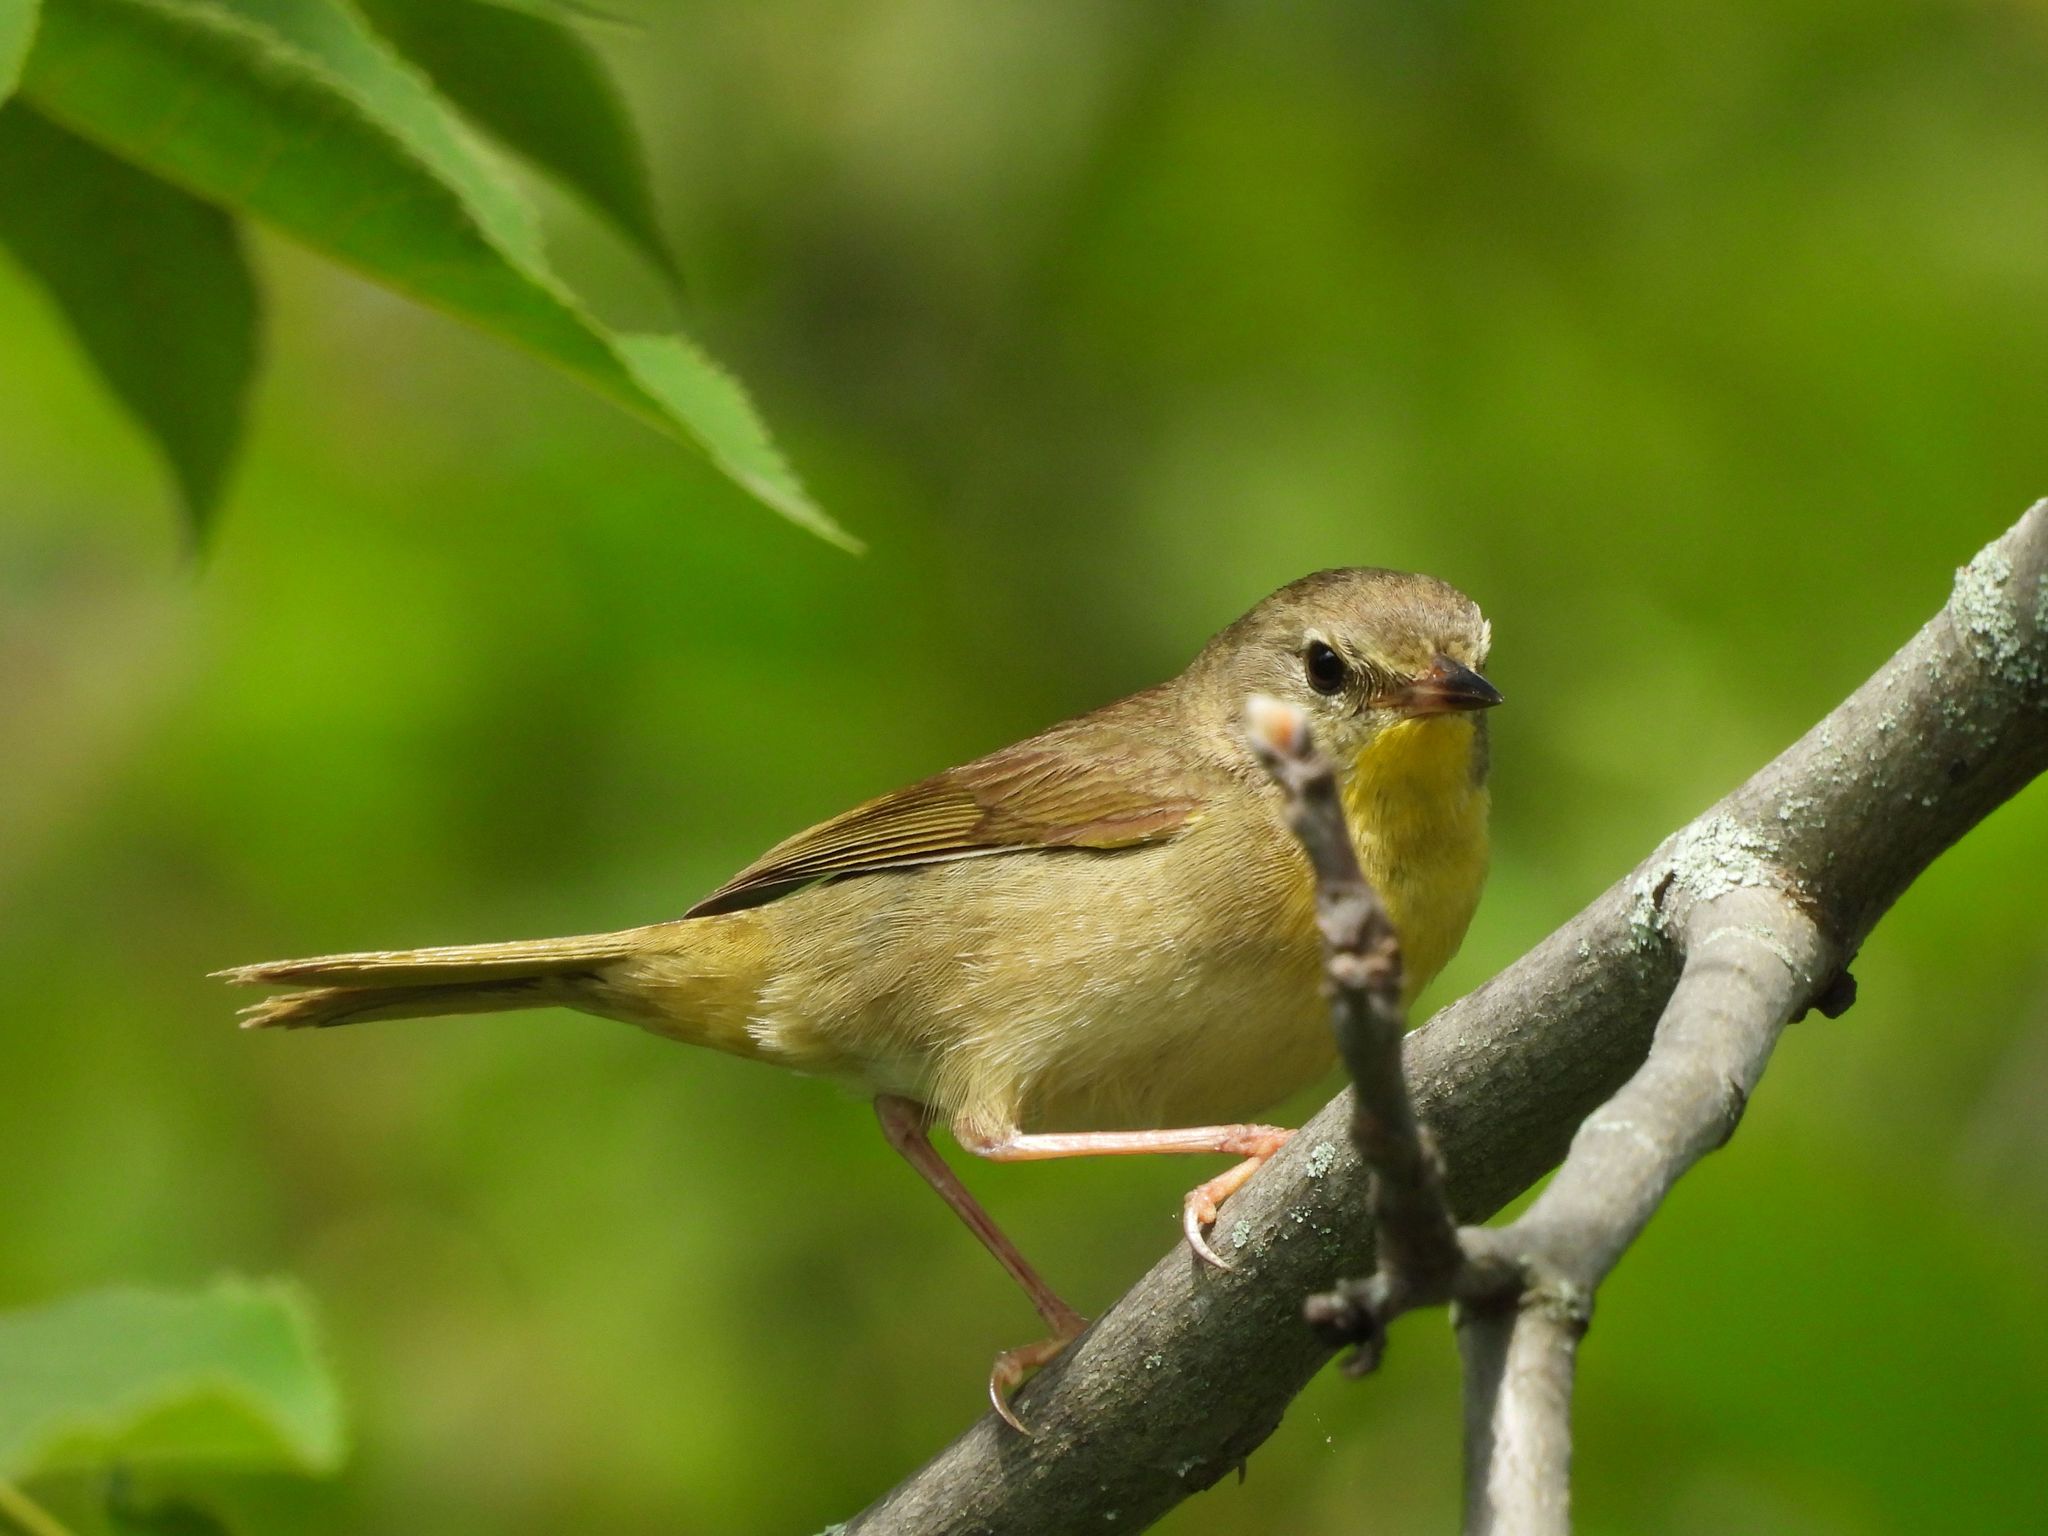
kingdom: Animalia
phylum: Chordata
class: Aves
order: Passeriformes
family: Parulidae
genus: Geothlypis
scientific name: Geothlypis trichas
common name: Common yellowthroat
